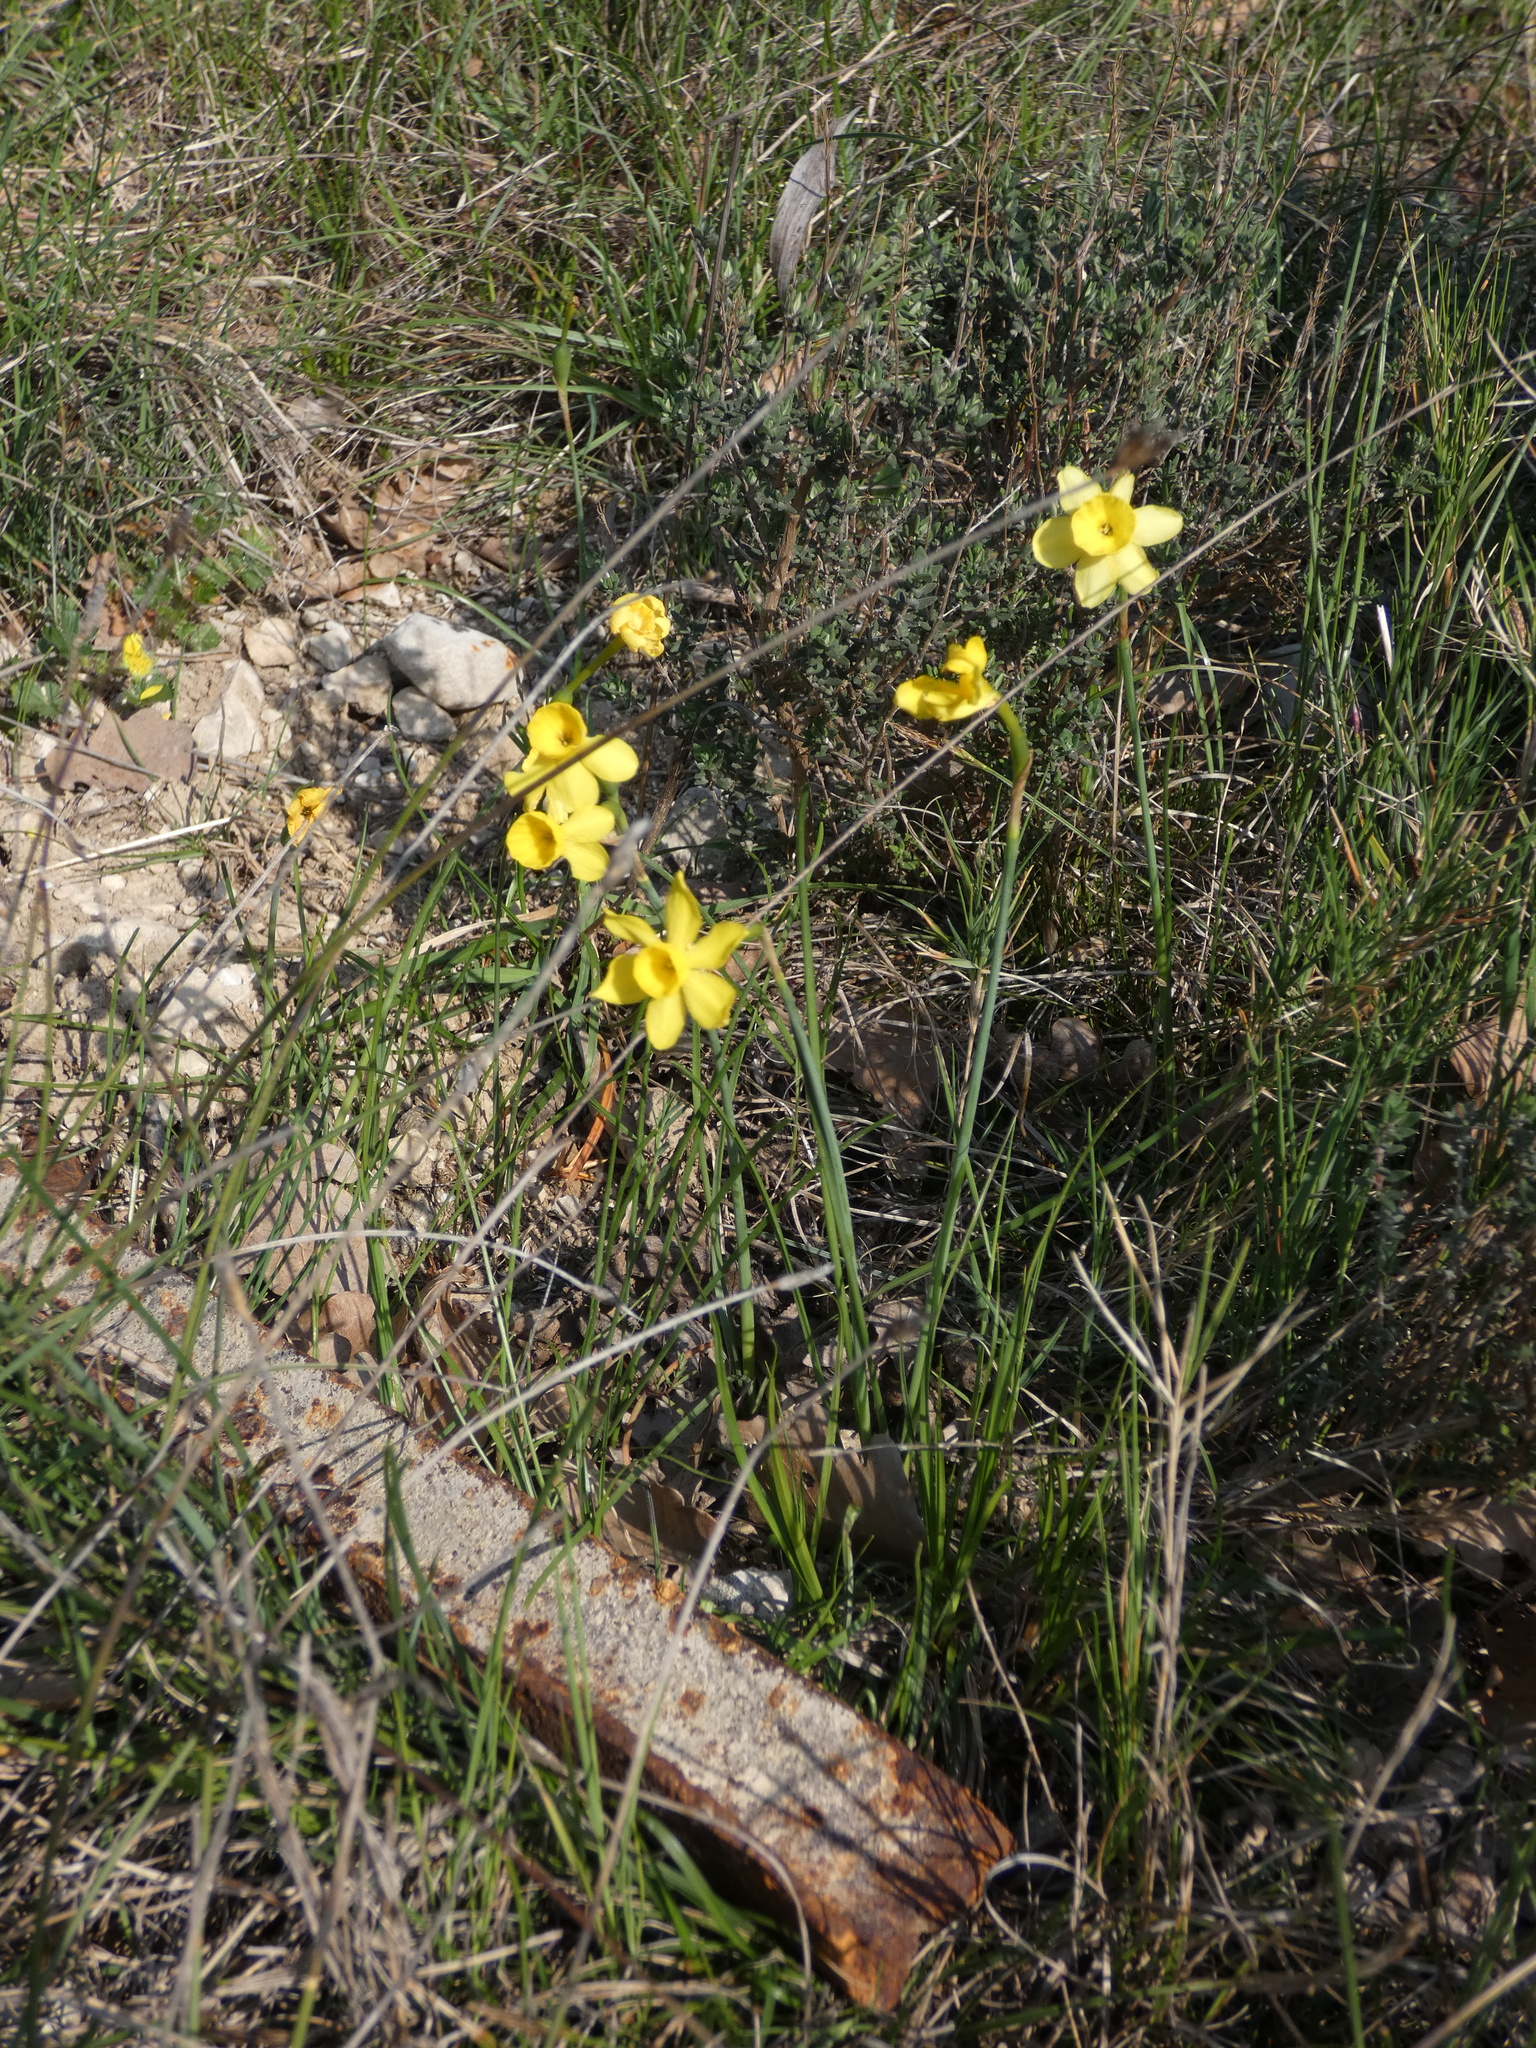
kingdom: Plantae
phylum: Tracheophyta
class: Liliopsida
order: Asparagales
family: Amaryllidaceae
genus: Narcissus
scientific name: Narcissus assoanus
